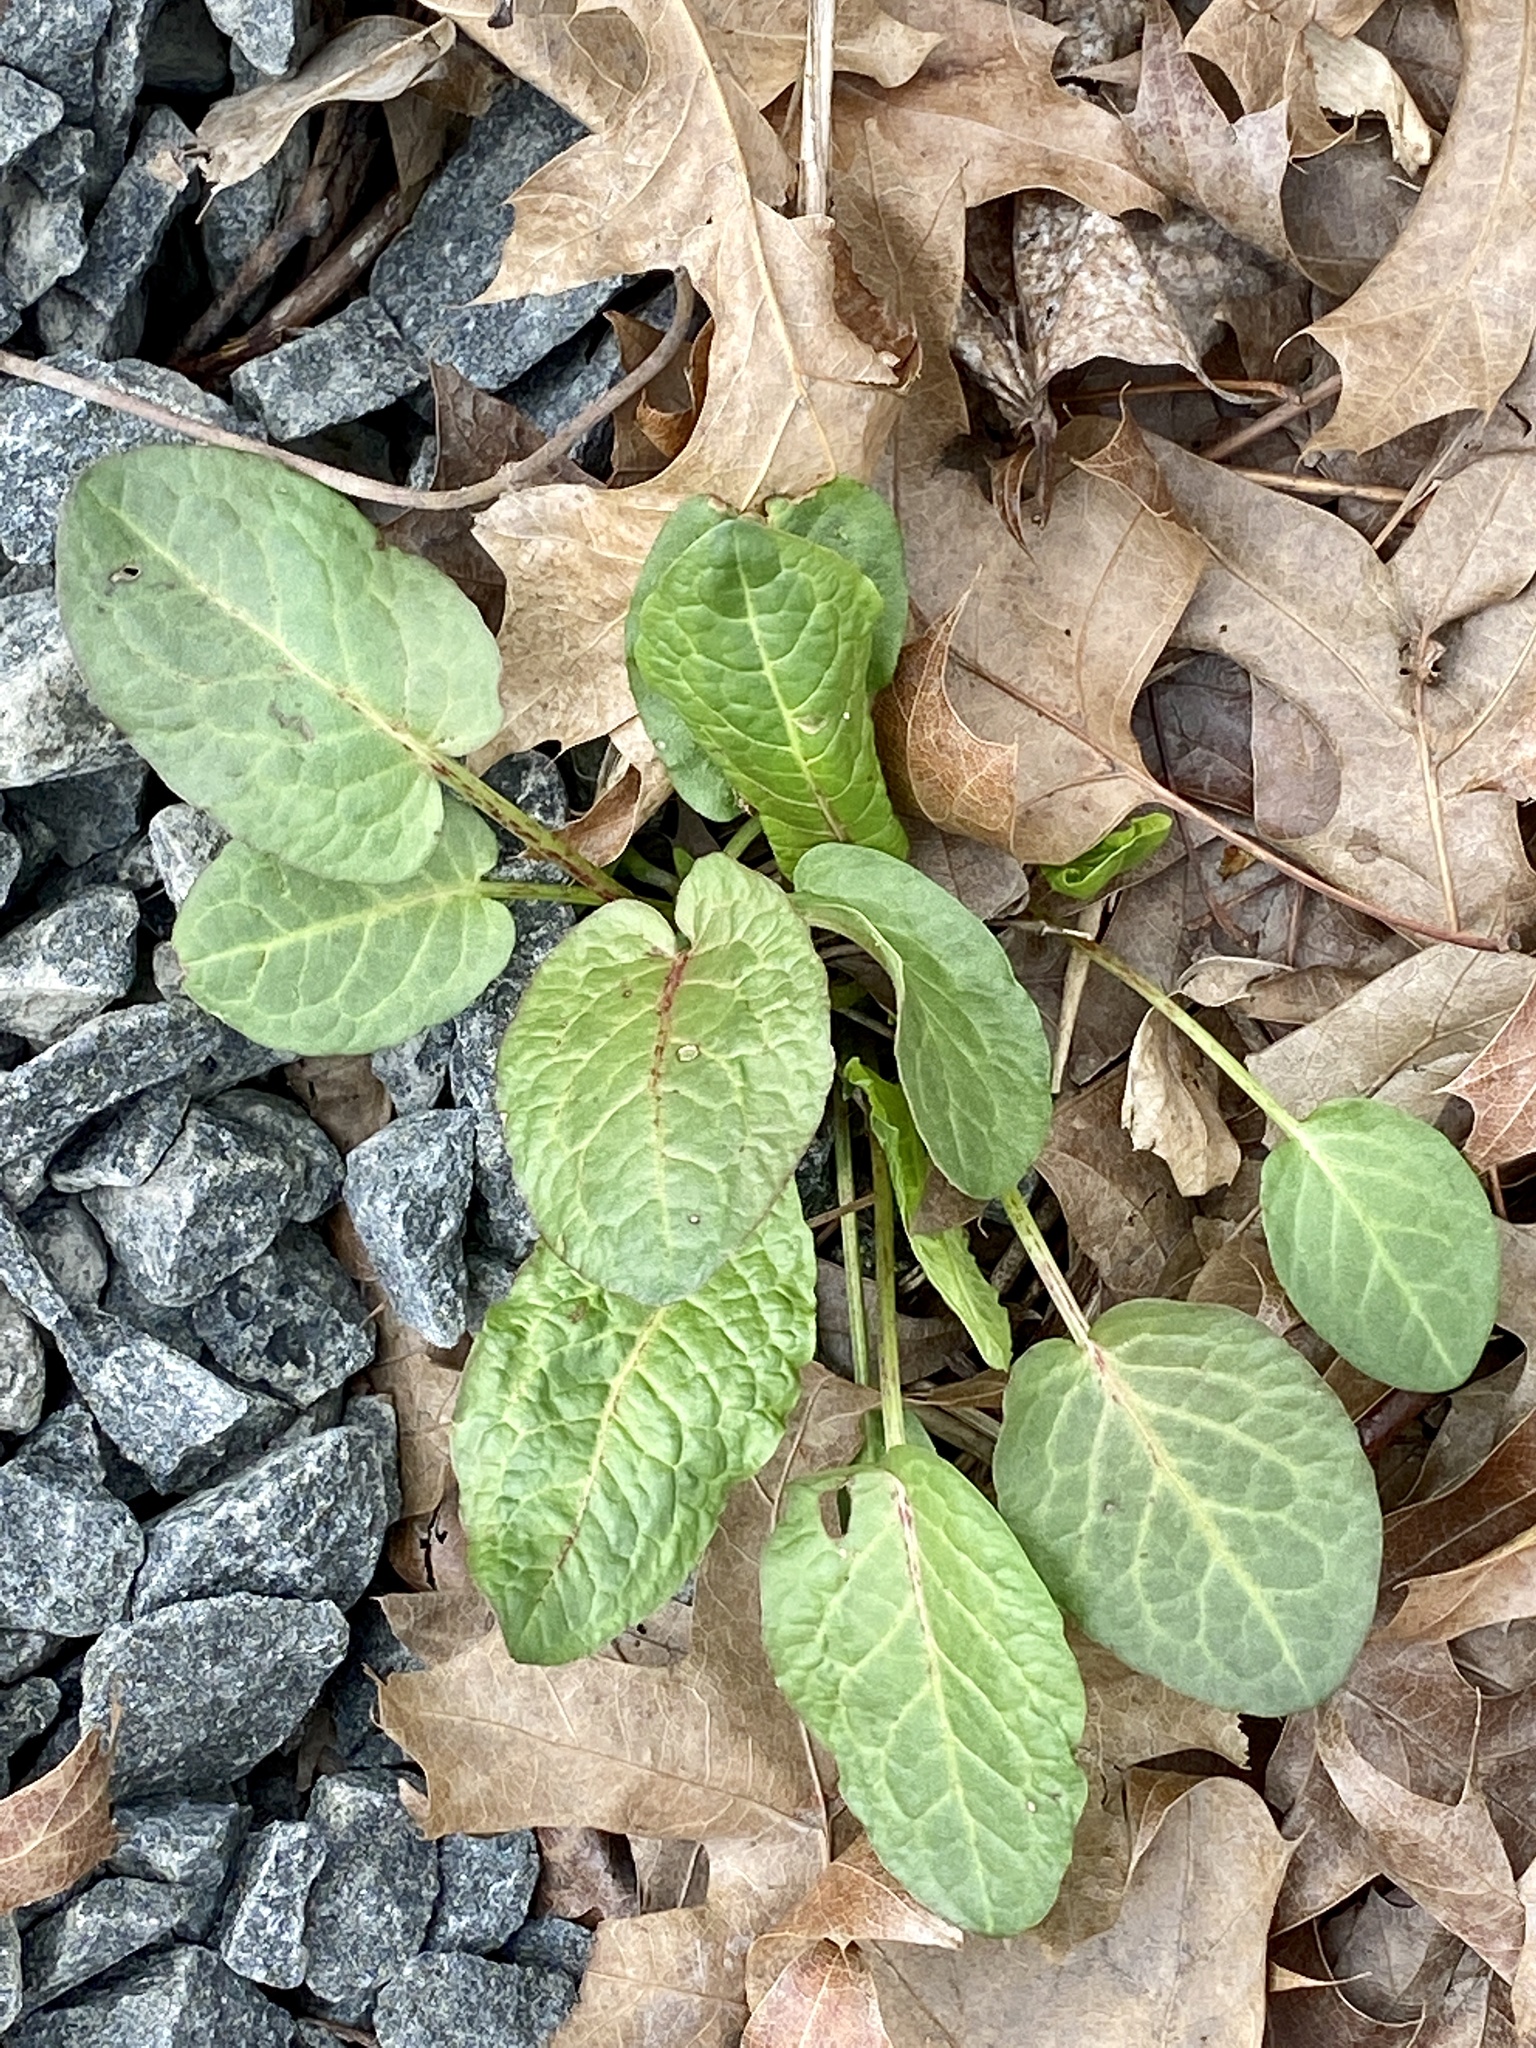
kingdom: Plantae
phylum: Tracheophyta
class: Magnoliopsida
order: Caryophyllales
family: Polygonaceae
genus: Rumex
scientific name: Rumex obtusifolius
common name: Bitter dock
